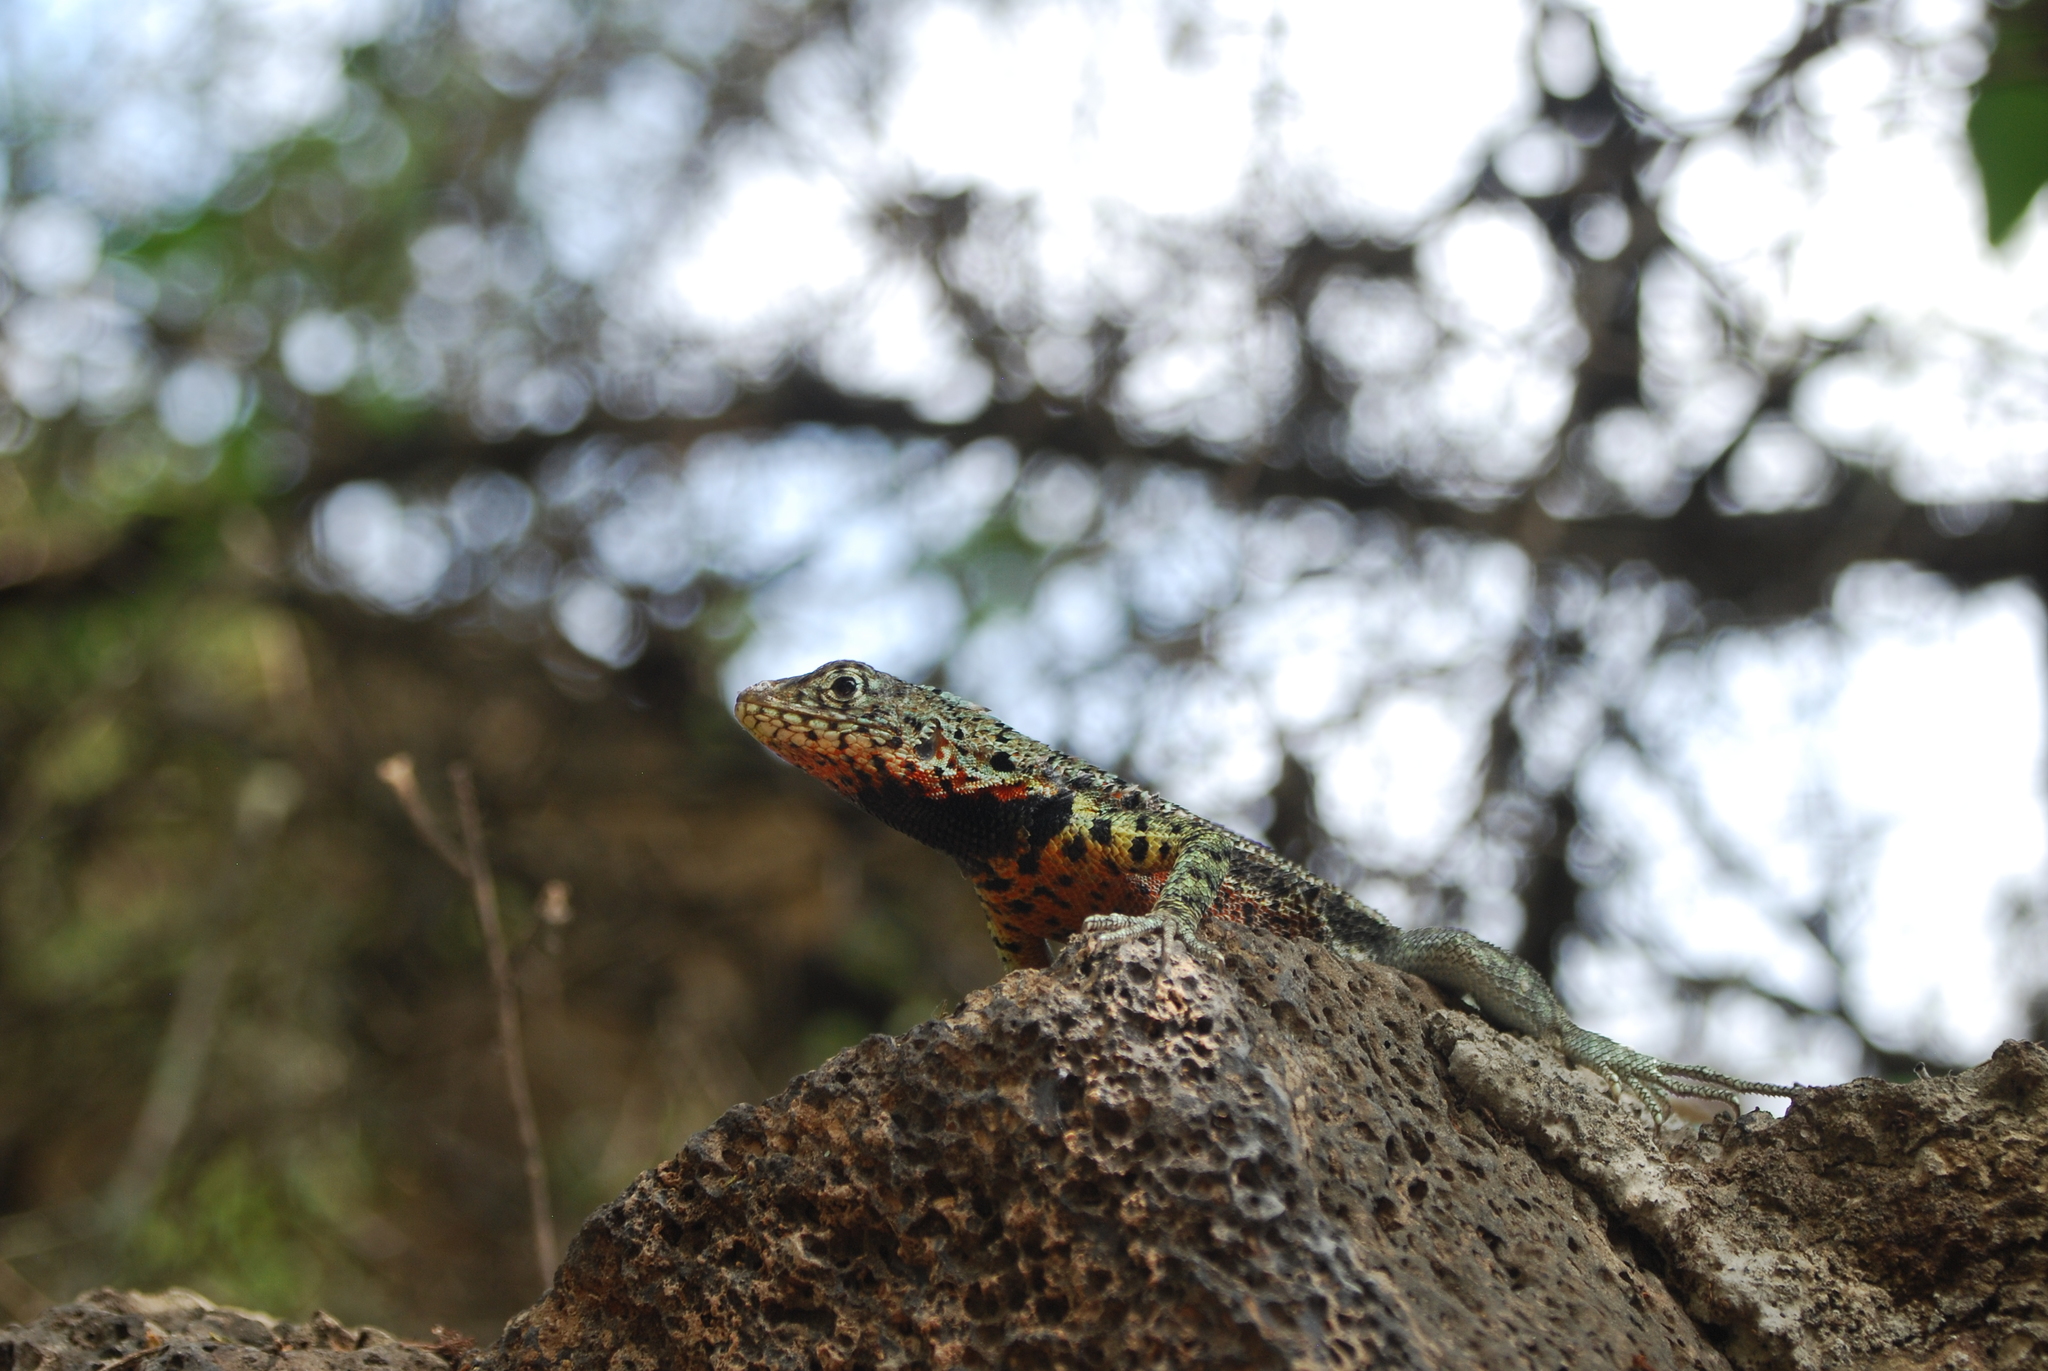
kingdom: Animalia
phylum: Chordata
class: Squamata
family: Tropiduridae
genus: Microlophus
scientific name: Microlophus indefatigabilis
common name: Galapagos lava lizard
